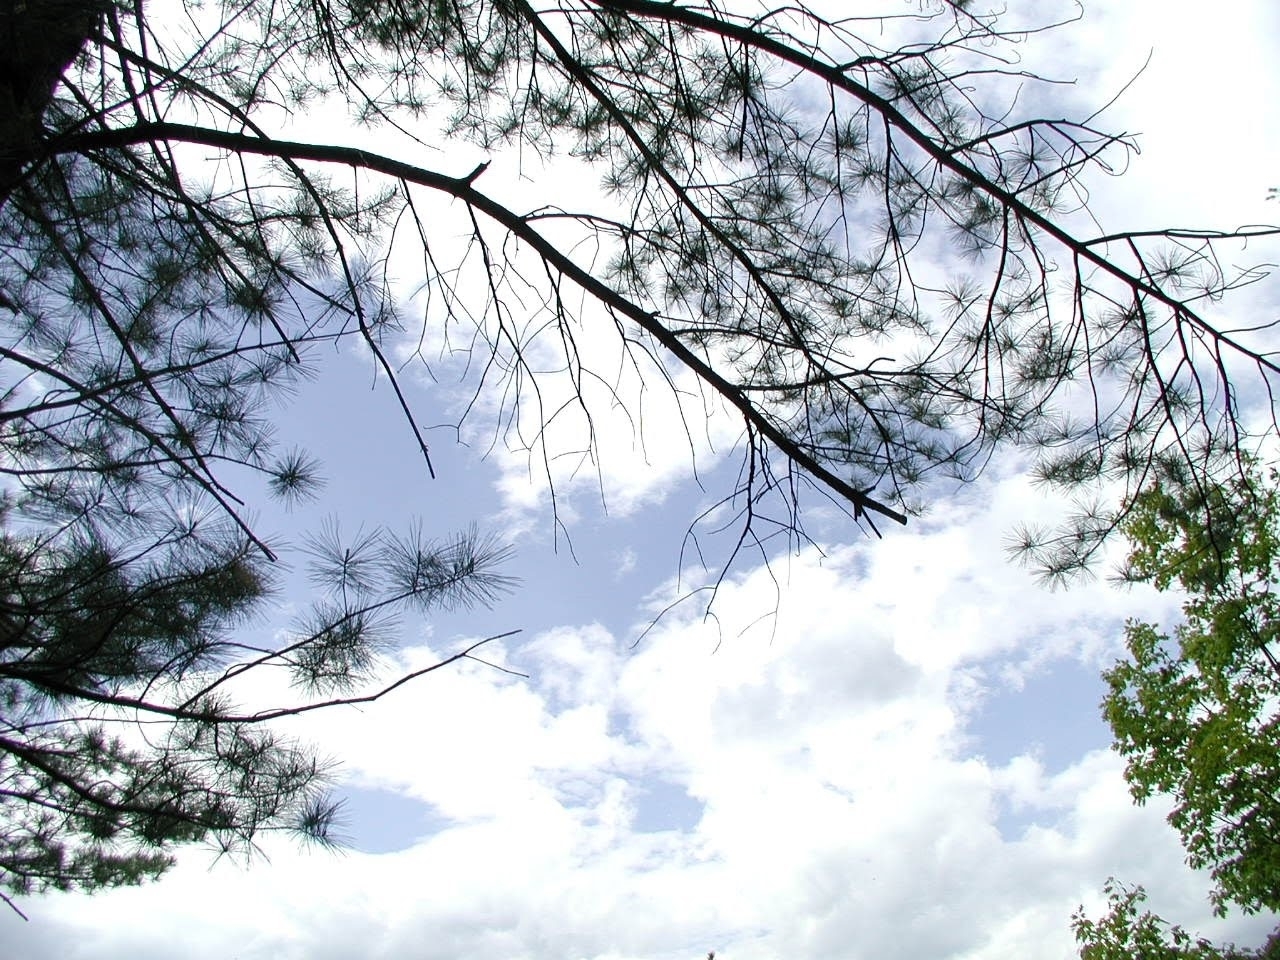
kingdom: Plantae
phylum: Tracheophyta
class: Pinopsida
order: Pinales
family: Pinaceae
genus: Pinus
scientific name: Pinus strobus
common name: Weymouth pine
